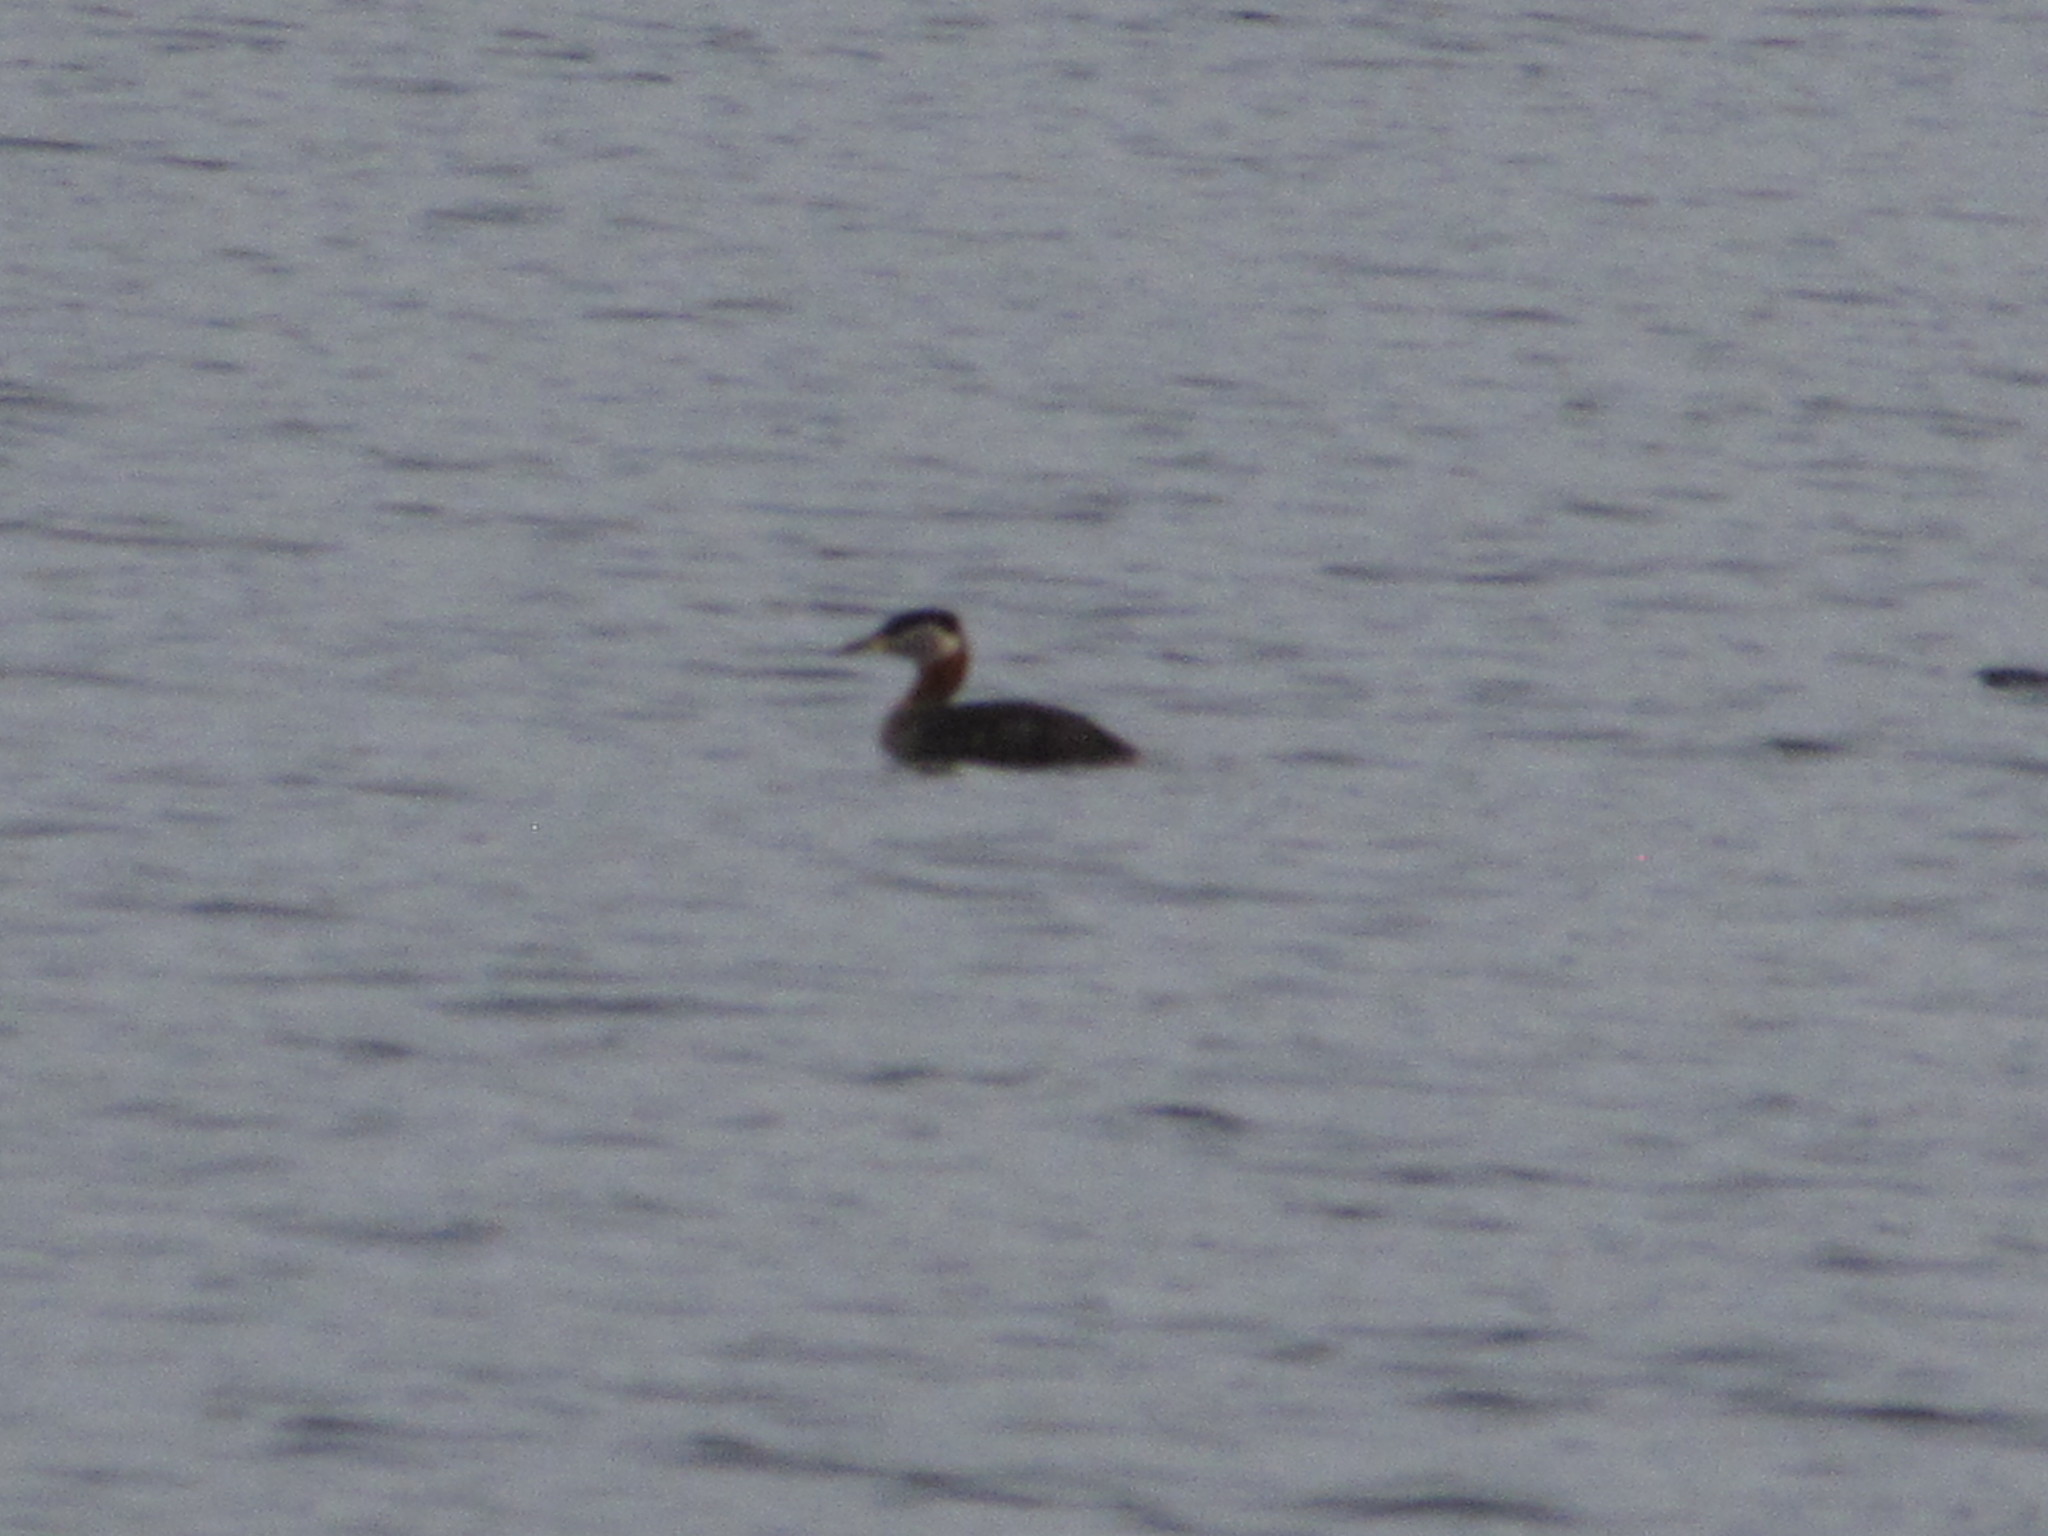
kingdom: Animalia
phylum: Chordata
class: Aves
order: Podicipediformes
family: Podicipedidae
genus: Podiceps
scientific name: Podiceps grisegena
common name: Red-necked grebe
